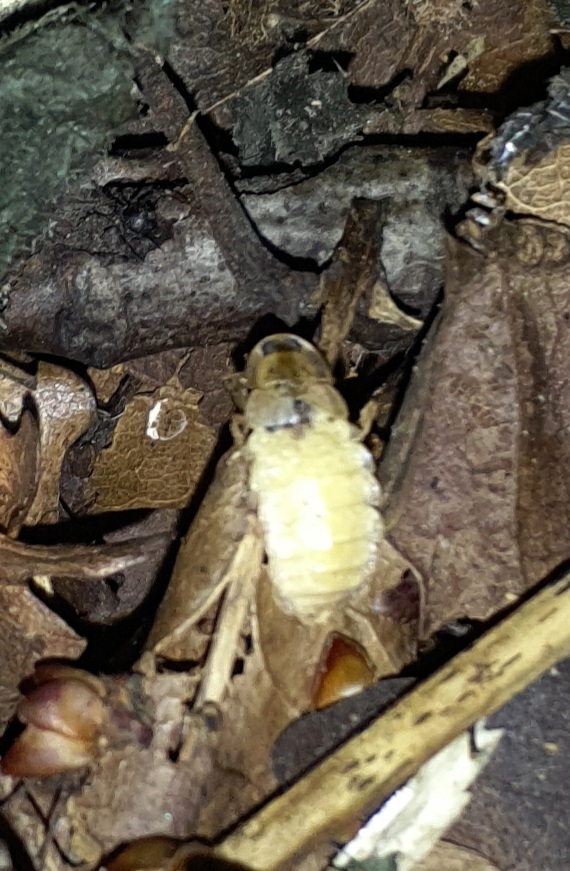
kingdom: Animalia
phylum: Arthropoda
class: Insecta
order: Coleoptera
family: Lampyridae
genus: Lamprohiza
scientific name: Lamprohiza splendidula
